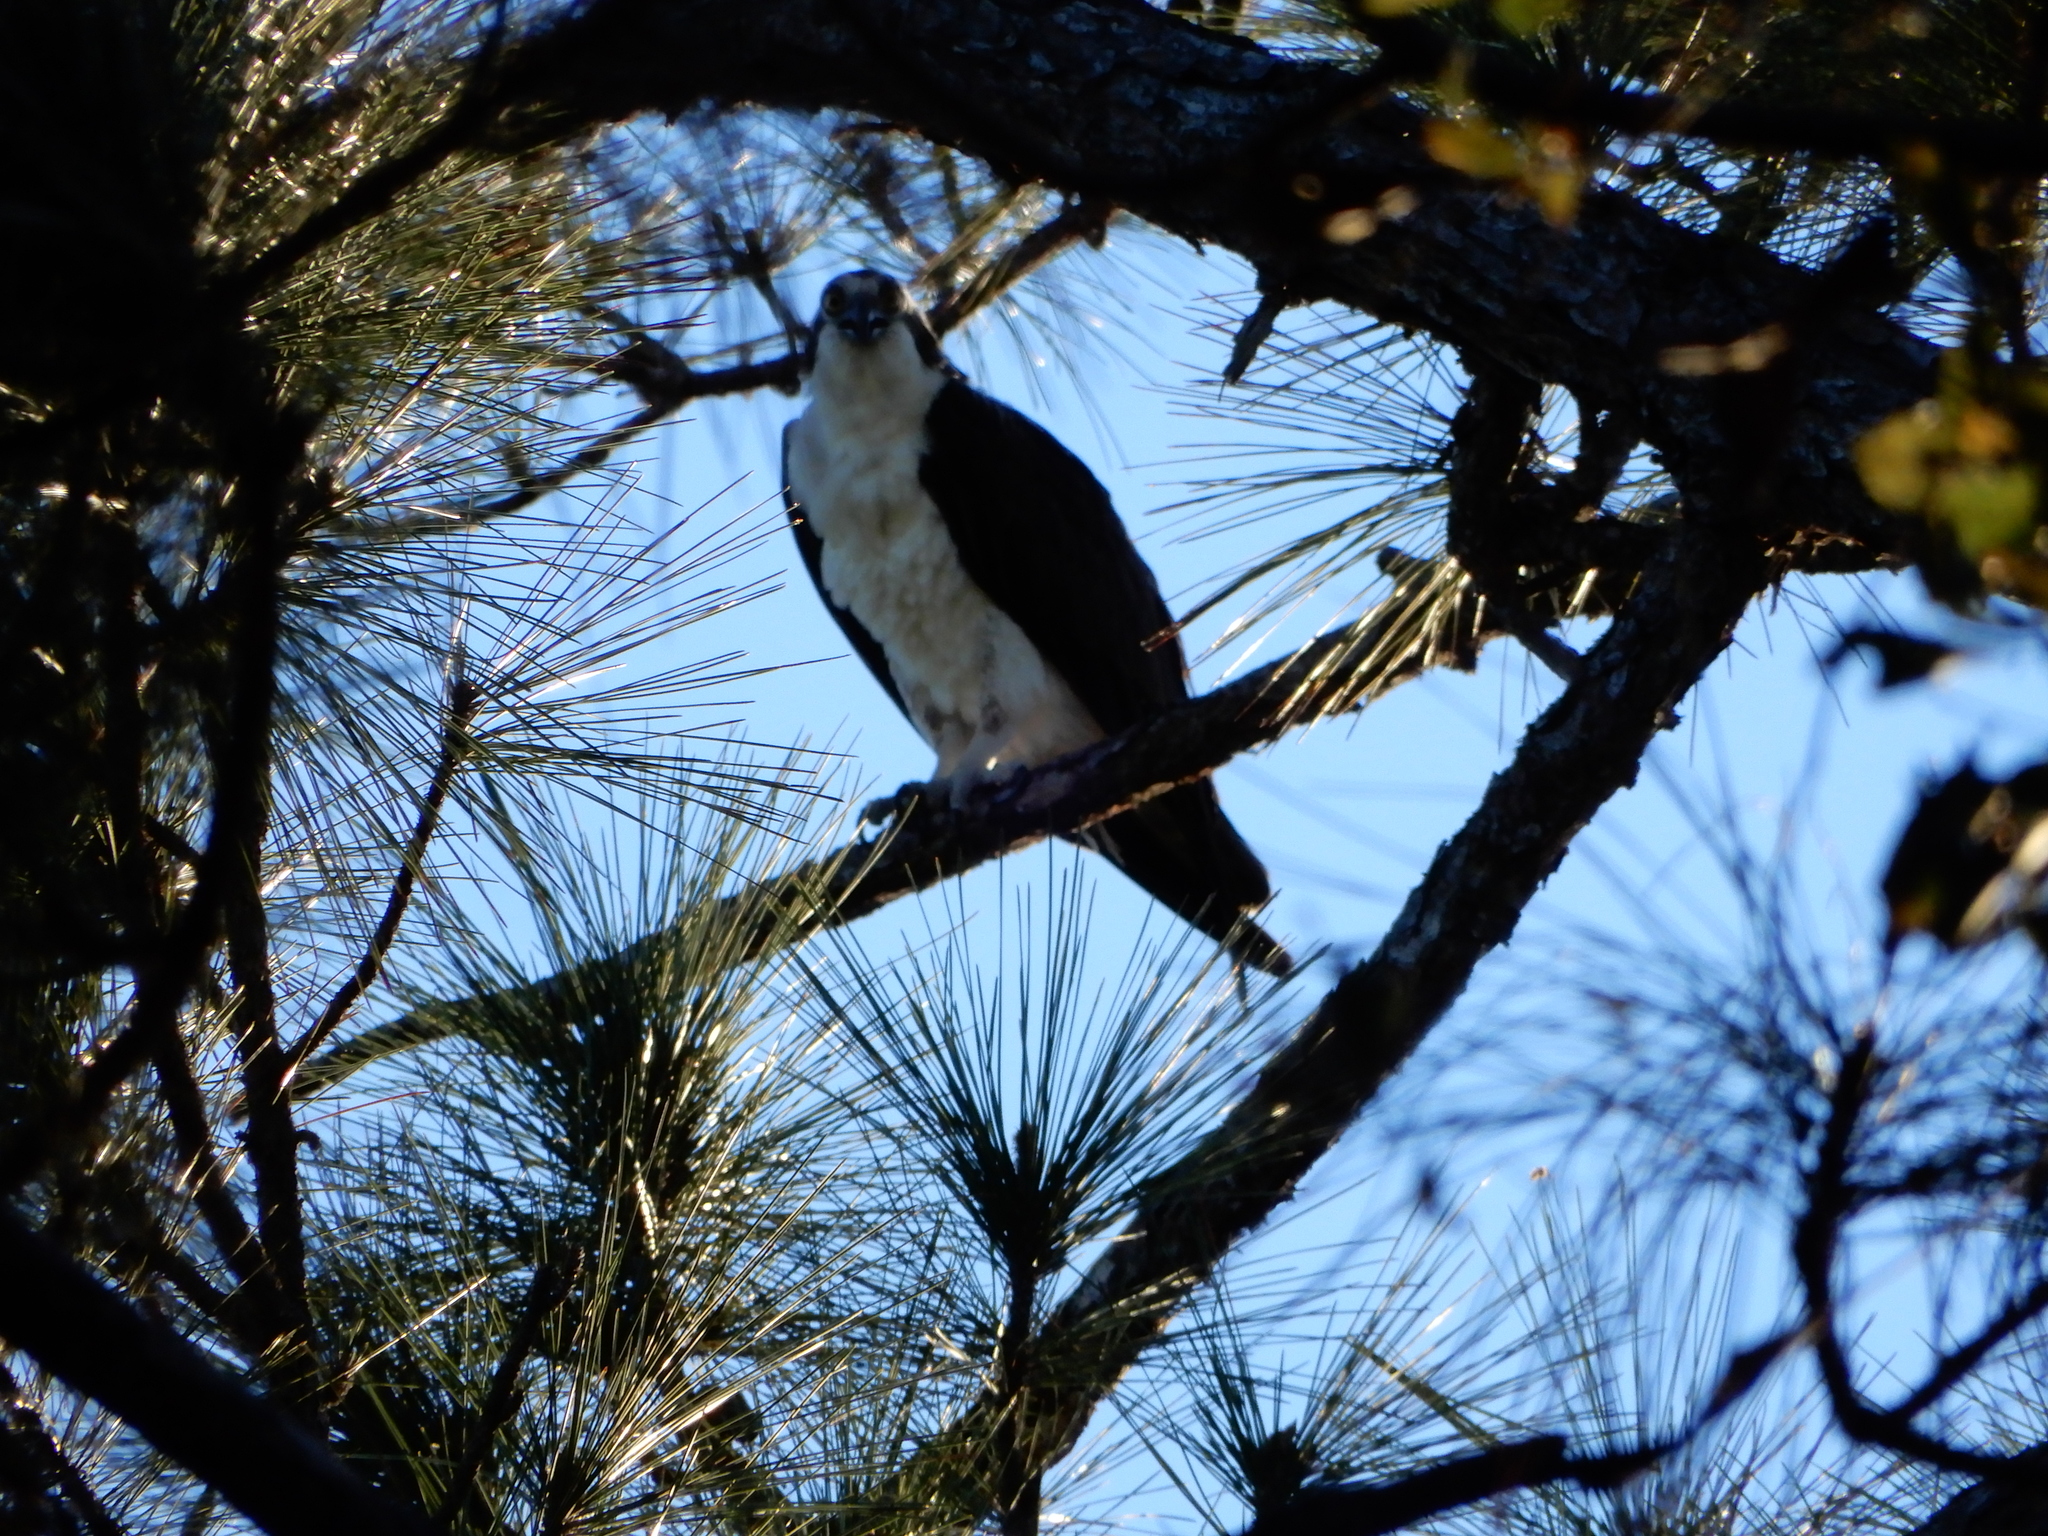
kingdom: Animalia
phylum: Chordata
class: Aves
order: Accipitriformes
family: Pandionidae
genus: Pandion
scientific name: Pandion haliaetus
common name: Osprey
